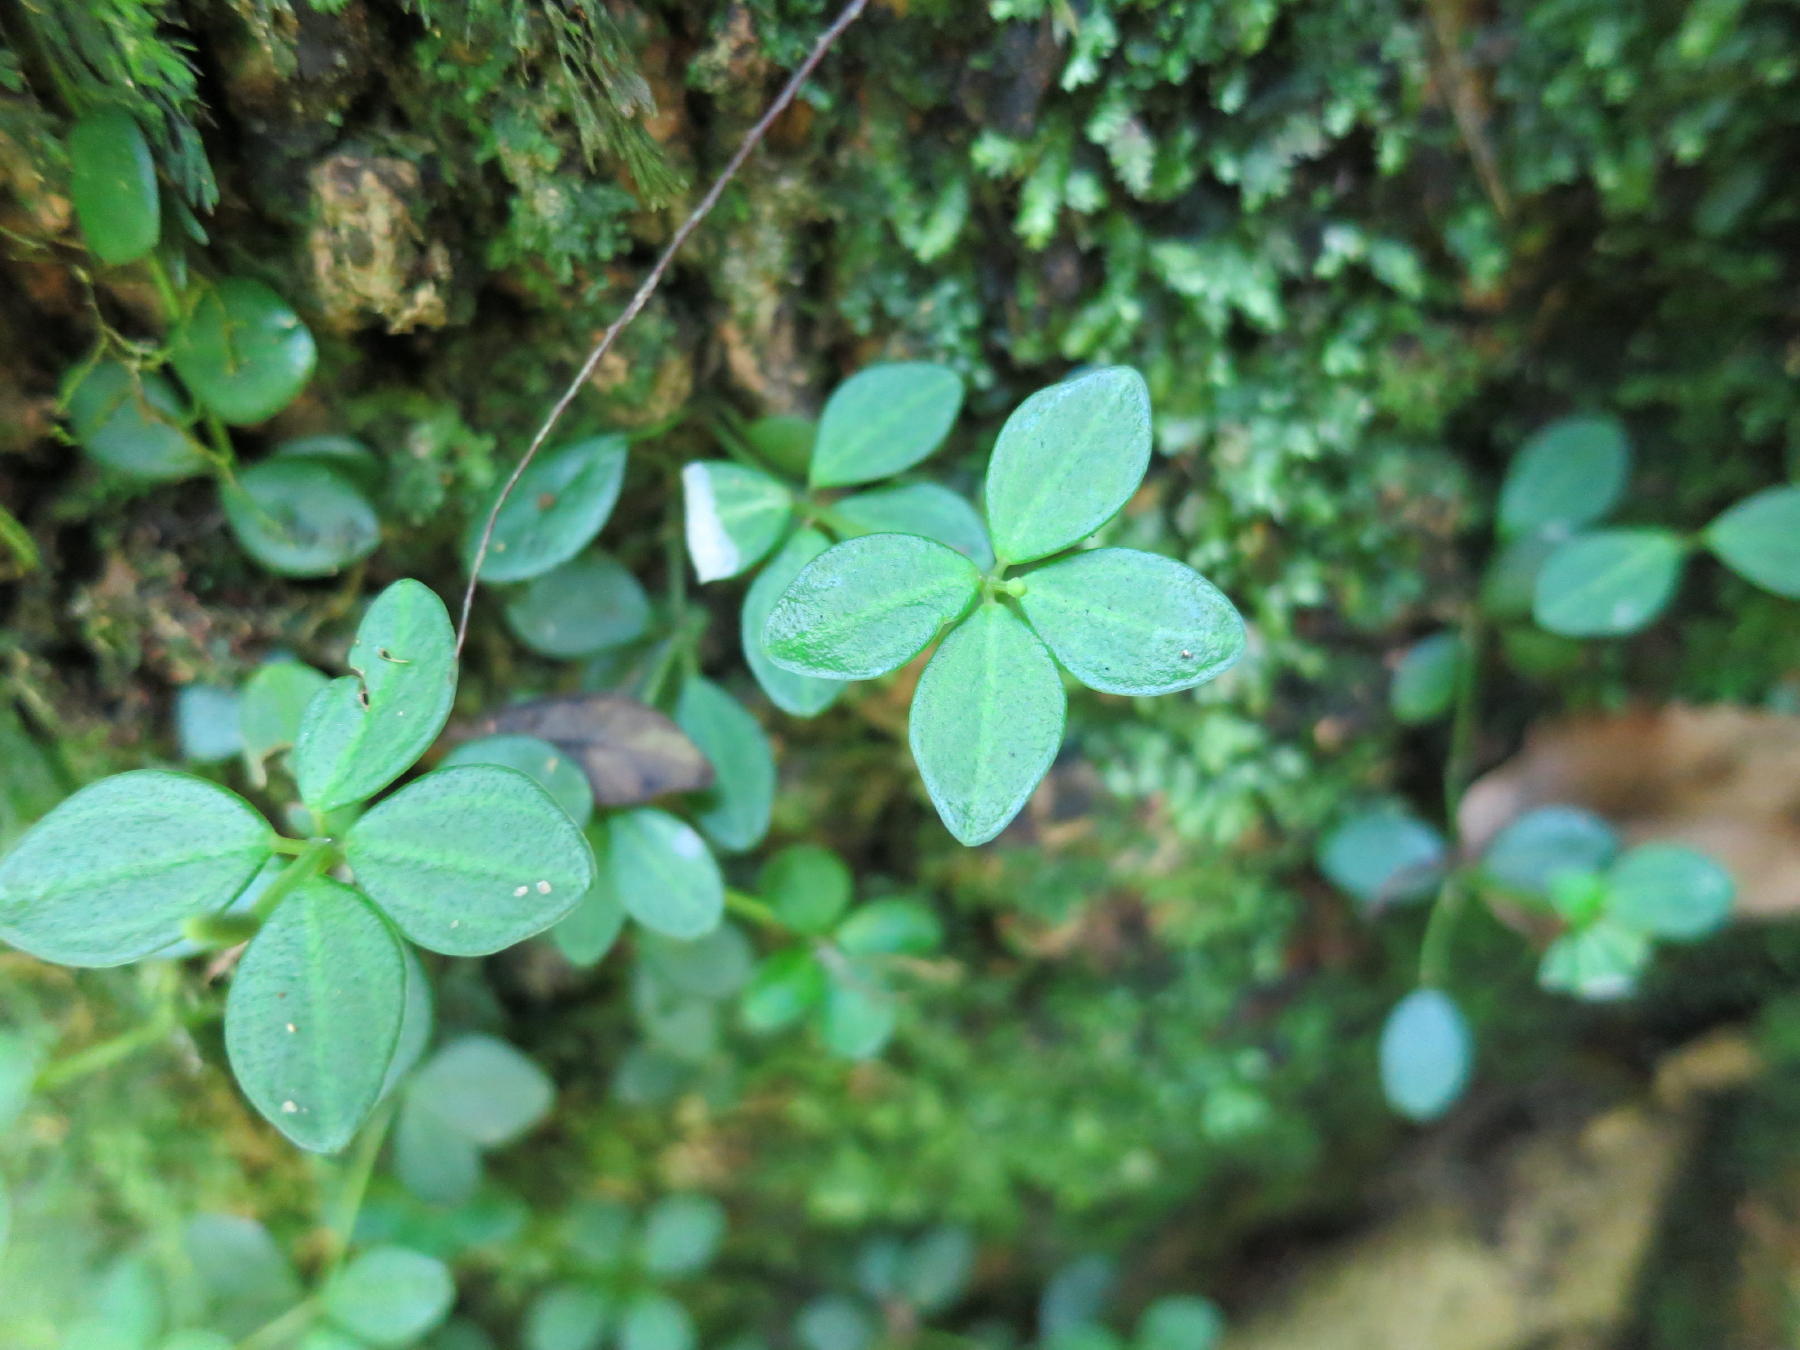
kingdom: Plantae
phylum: Tracheophyta
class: Magnoliopsida
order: Piperales
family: Piperaceae
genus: Peperomia
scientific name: Peperomia tetraphylla
